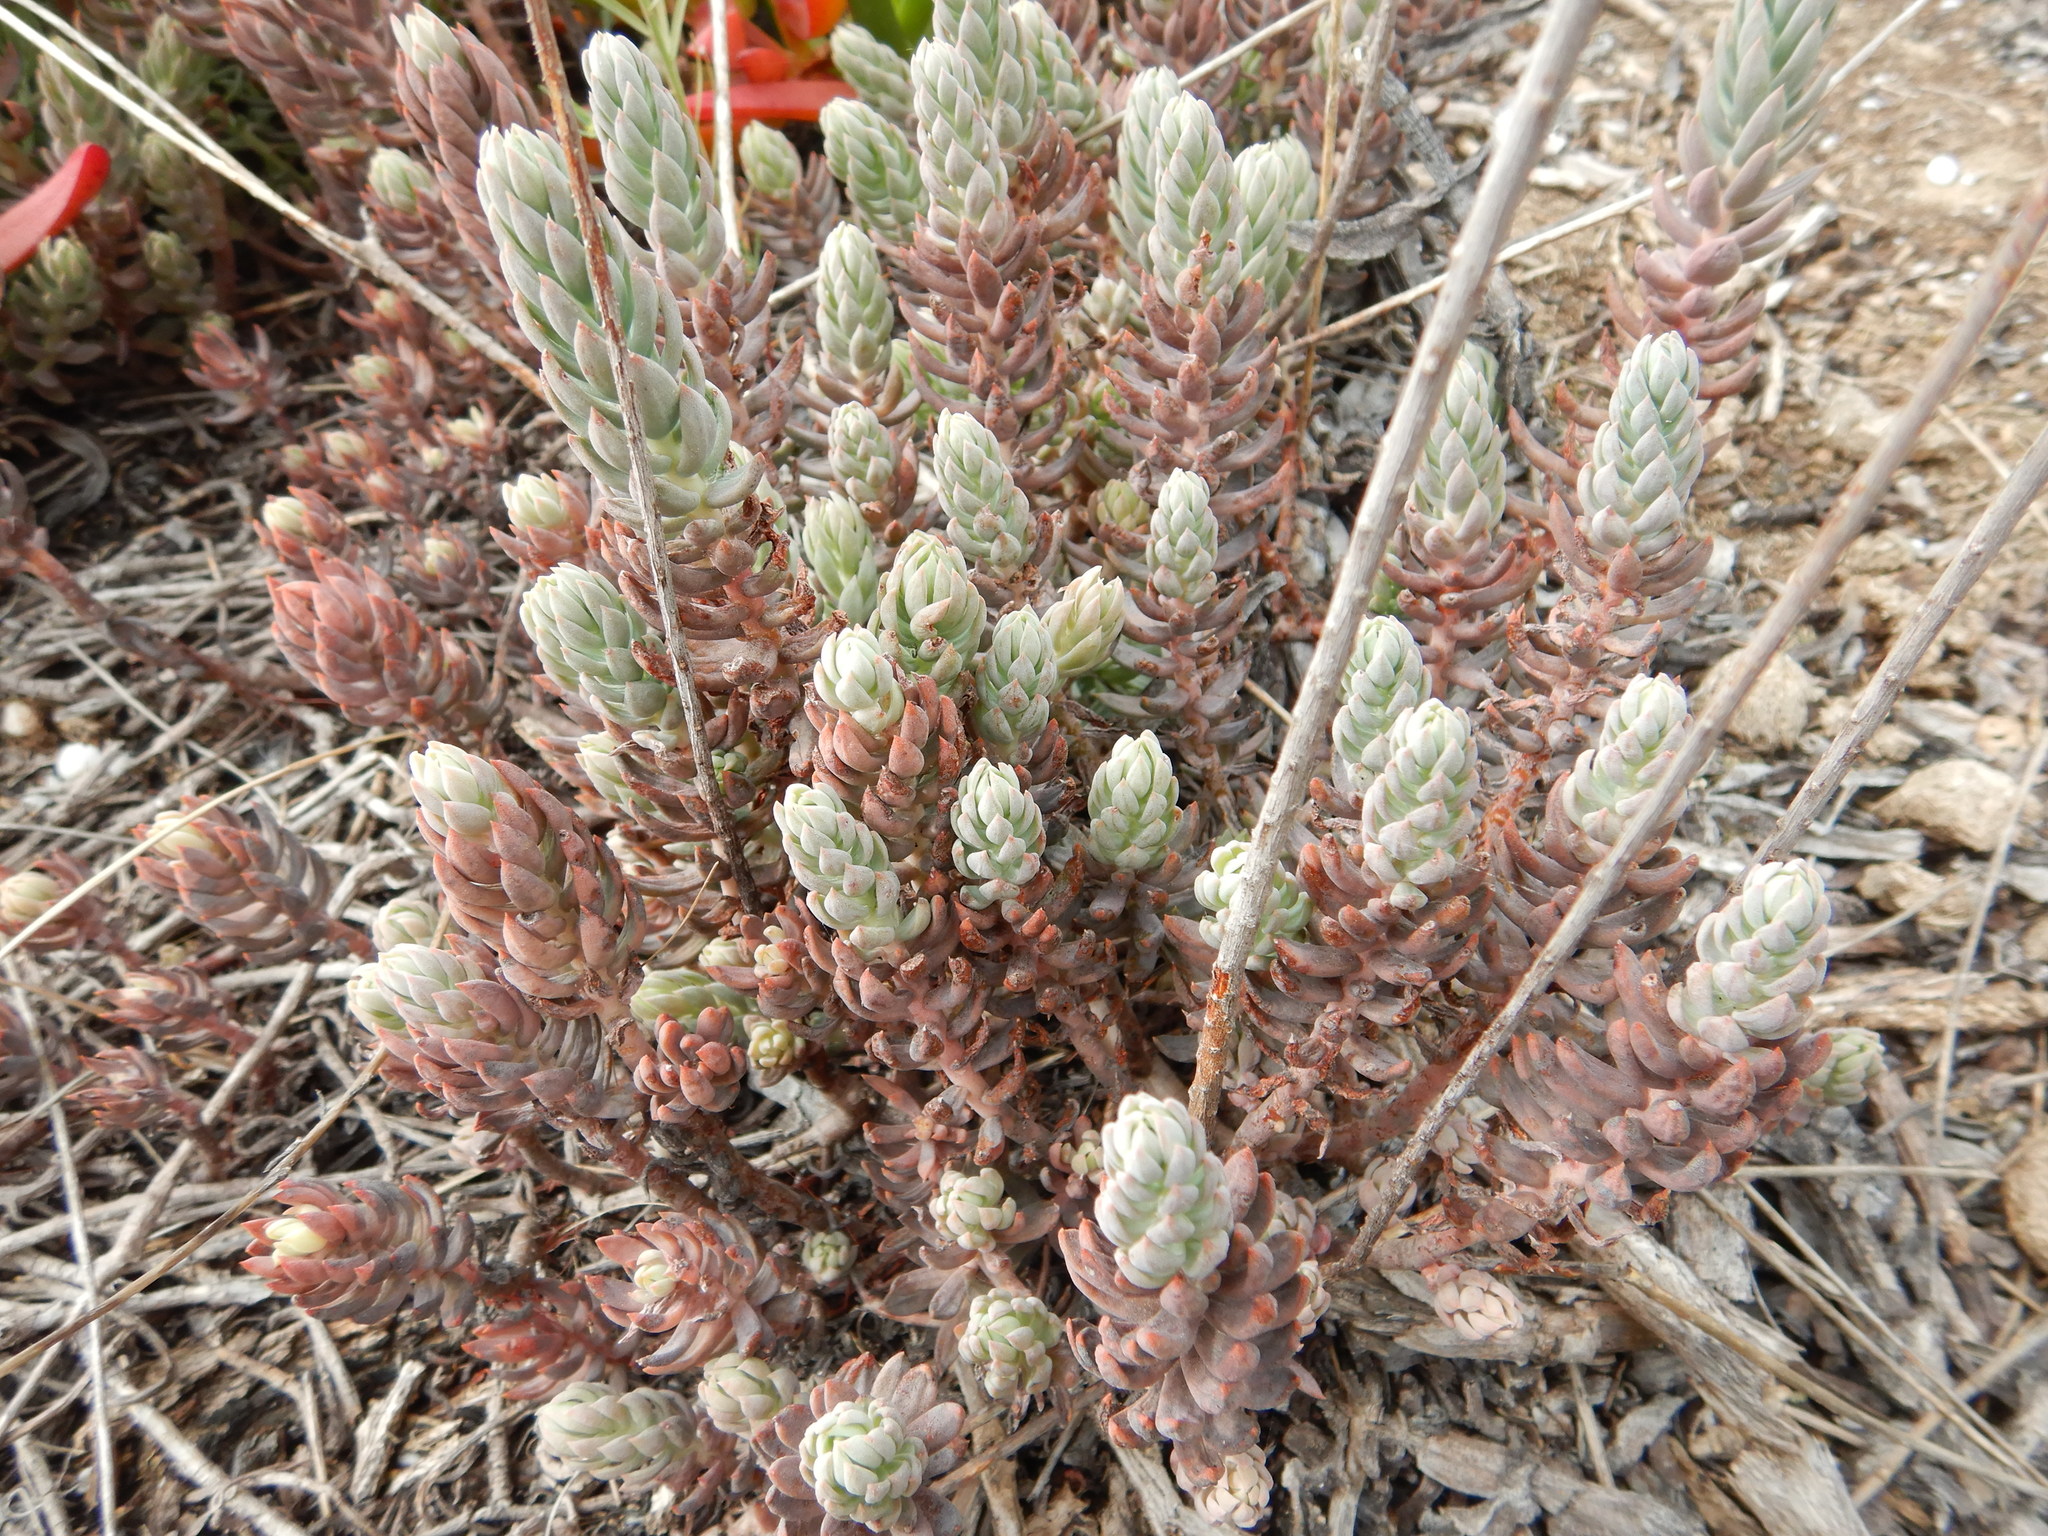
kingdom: Plantae
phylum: Tracheophyta
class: Magnoliopsida
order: Saxifragales
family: Crassulaceae
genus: Petrosedum
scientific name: Petrosedum sediforme
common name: Pale stonecrop
